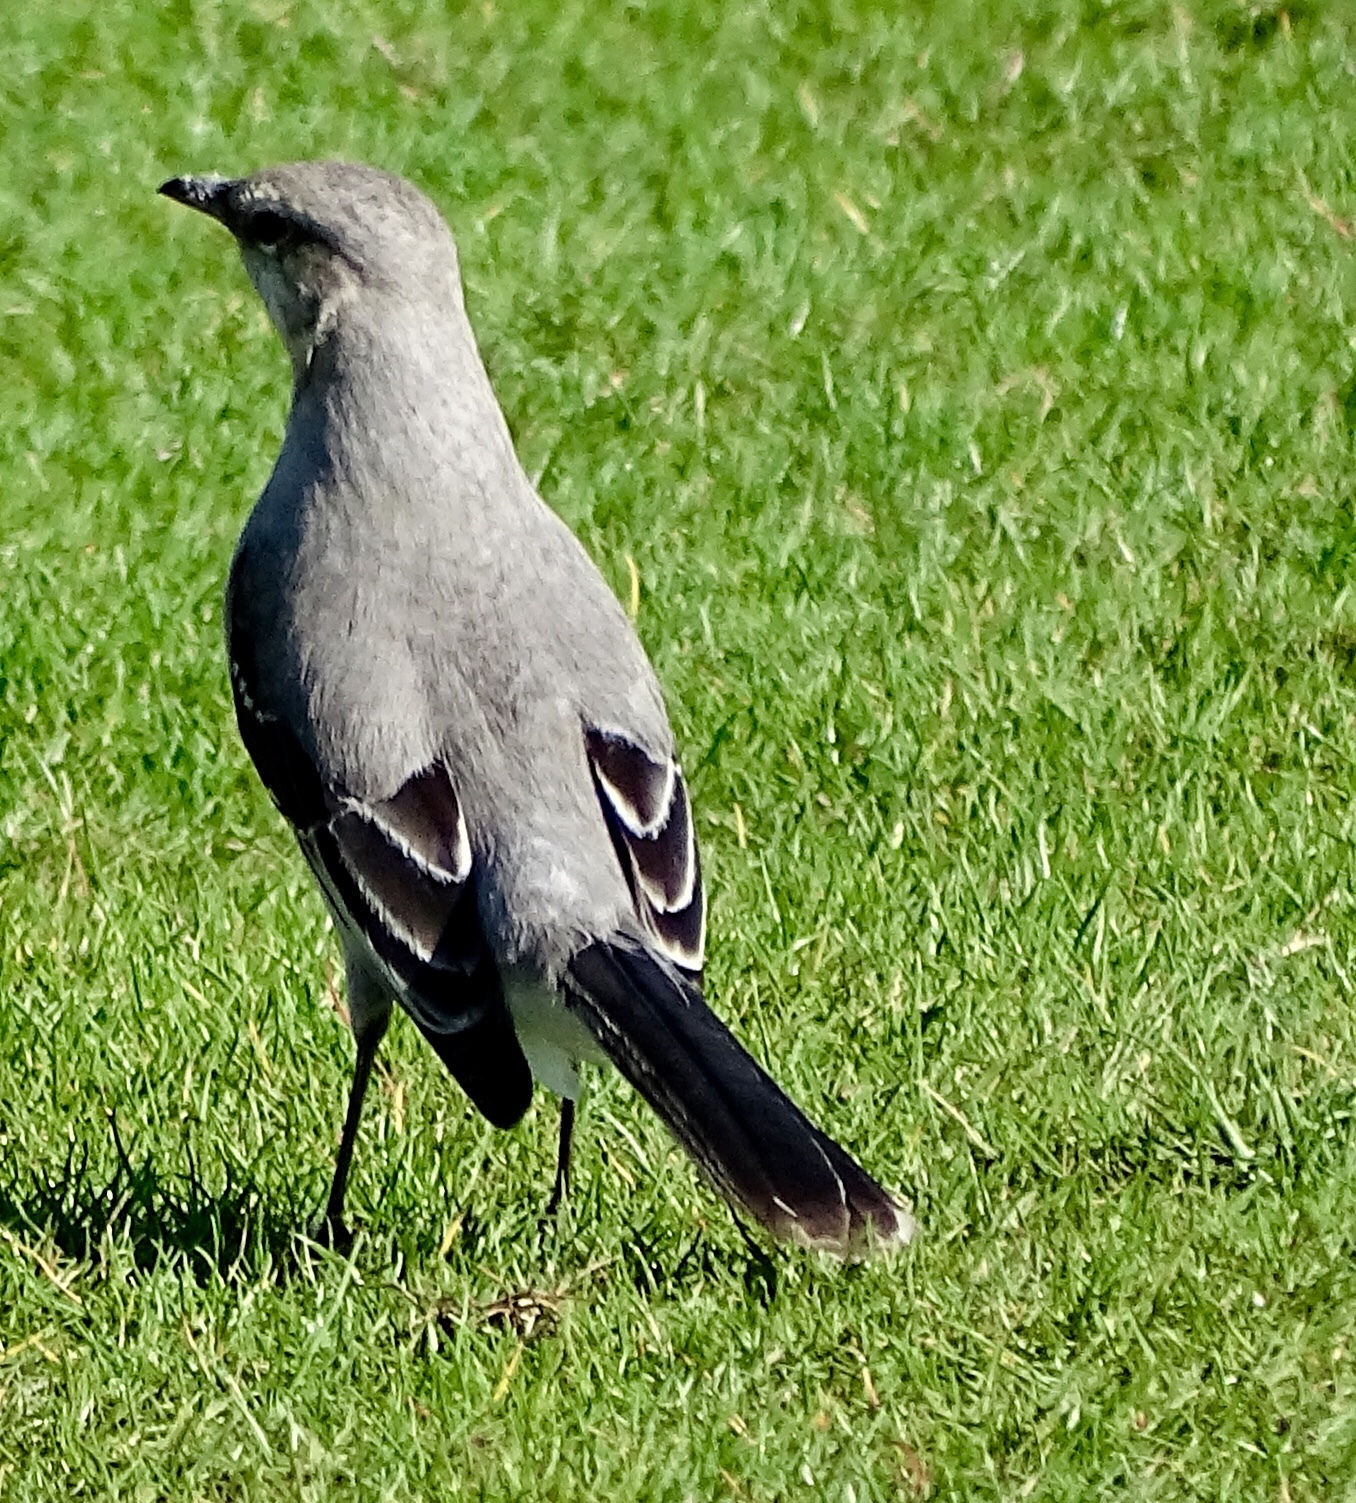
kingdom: Animalia
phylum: Chordata
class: Aves
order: Passeriformes
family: Mimidae
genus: Mimus
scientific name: Mimus gilvus
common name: Tropical mockingbird
